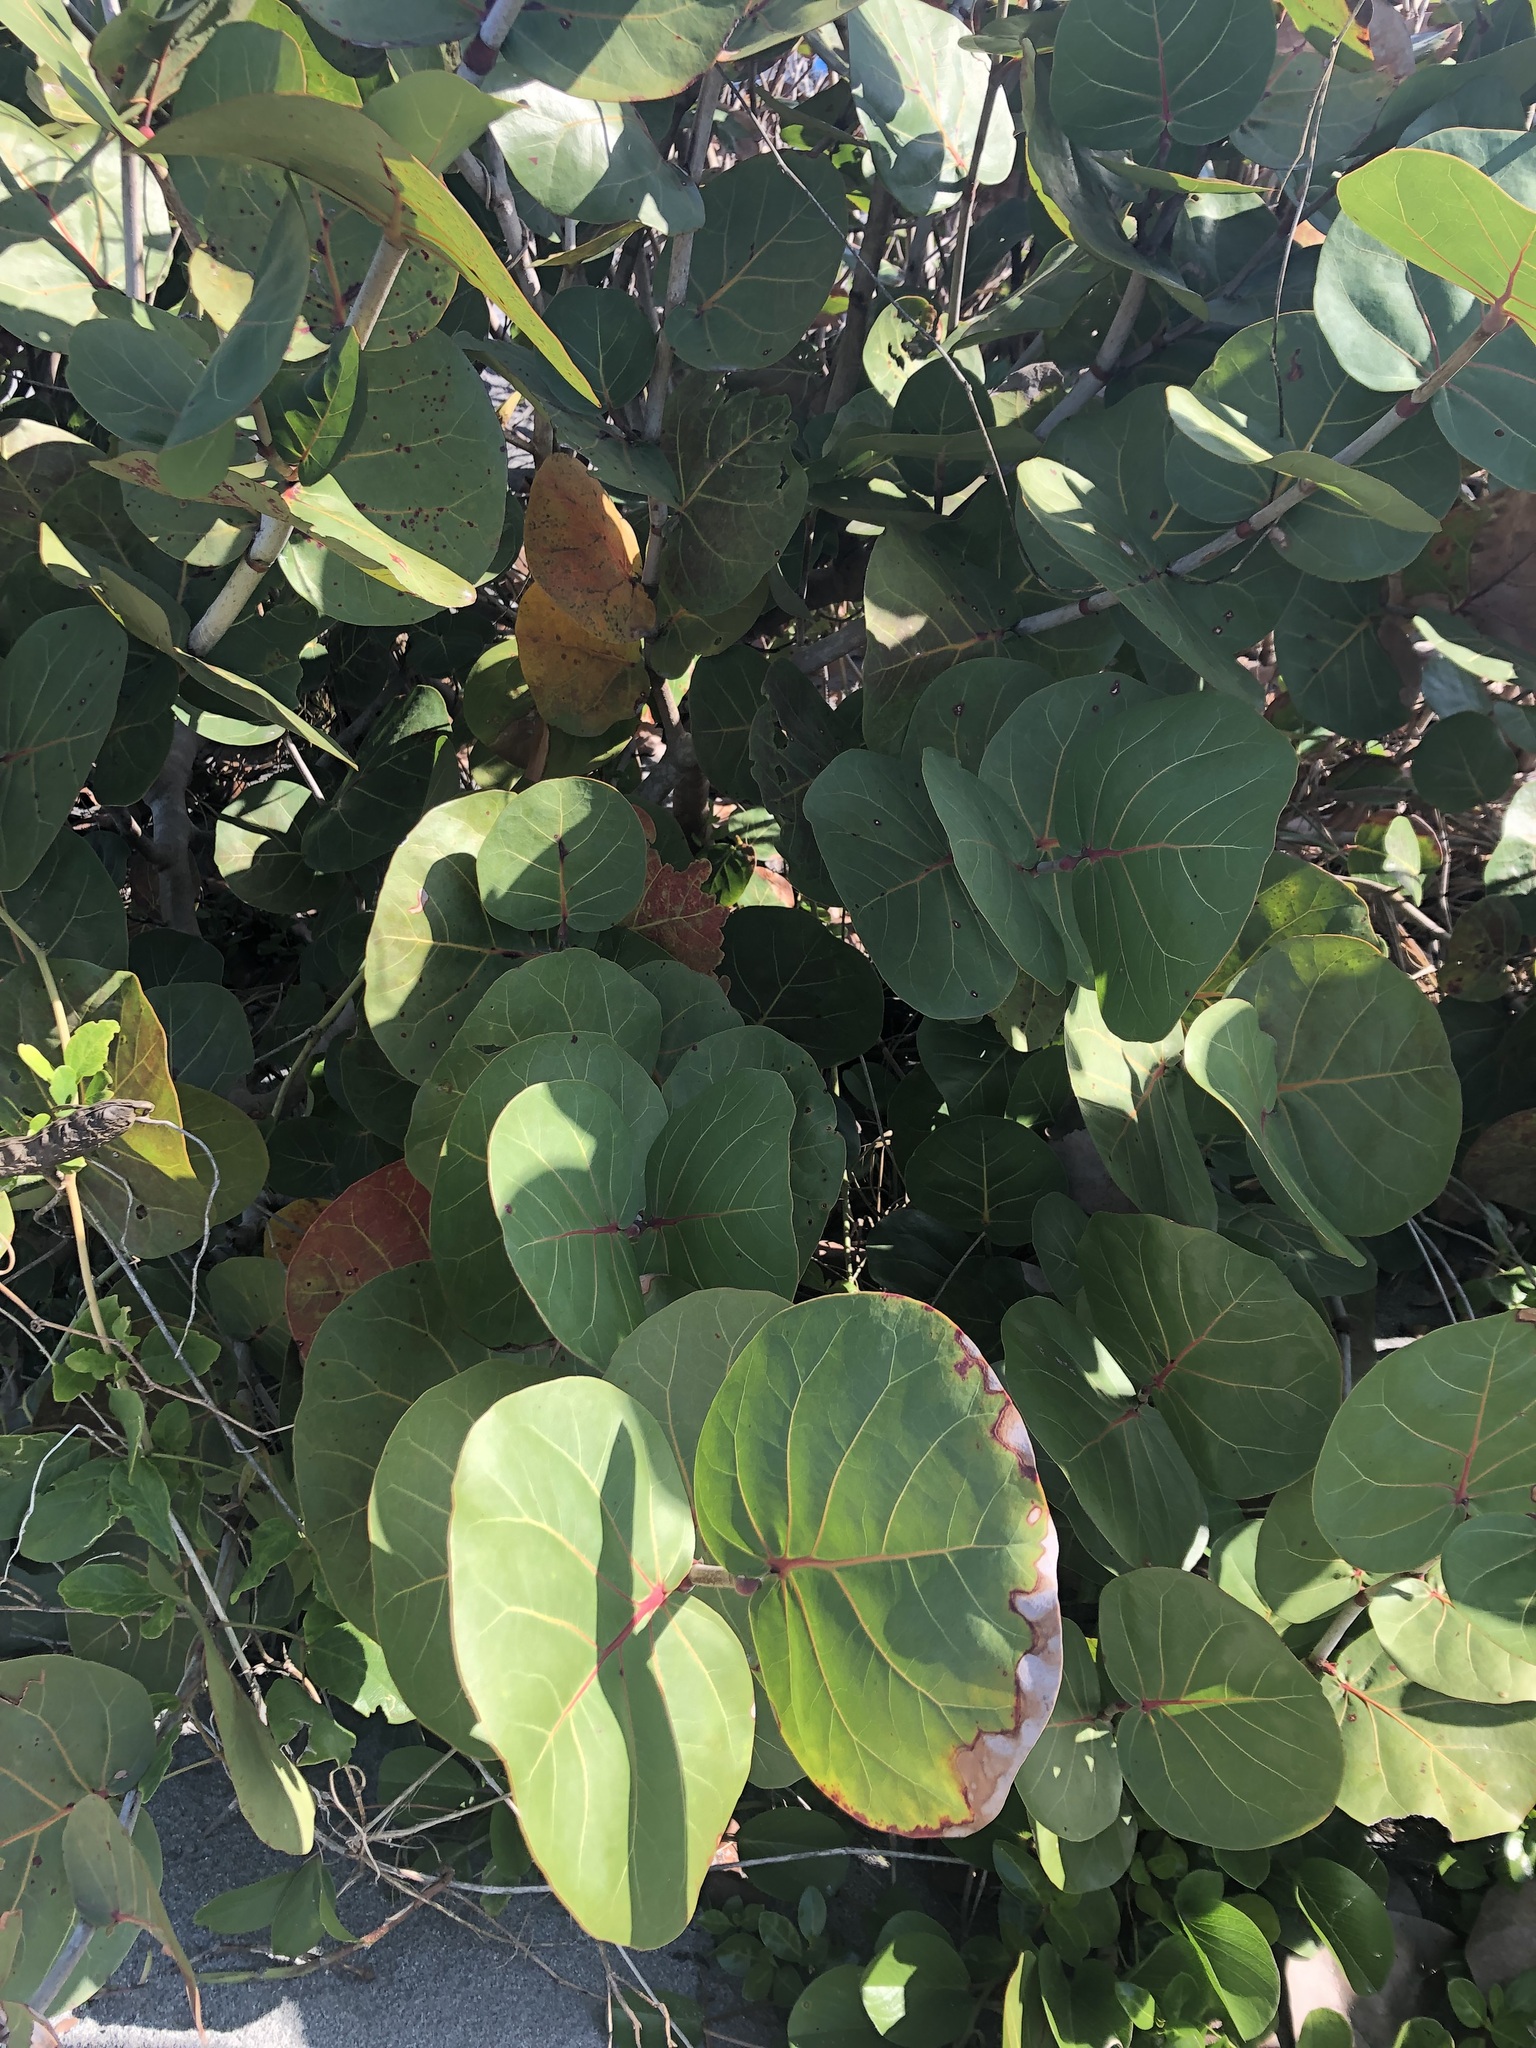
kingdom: Plantae
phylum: Tracheophyta
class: Magnoliopsida
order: Caryophyllales
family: Polygonaceae
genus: Coccoloba
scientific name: Coccoloba uvifera
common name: Seagrape
